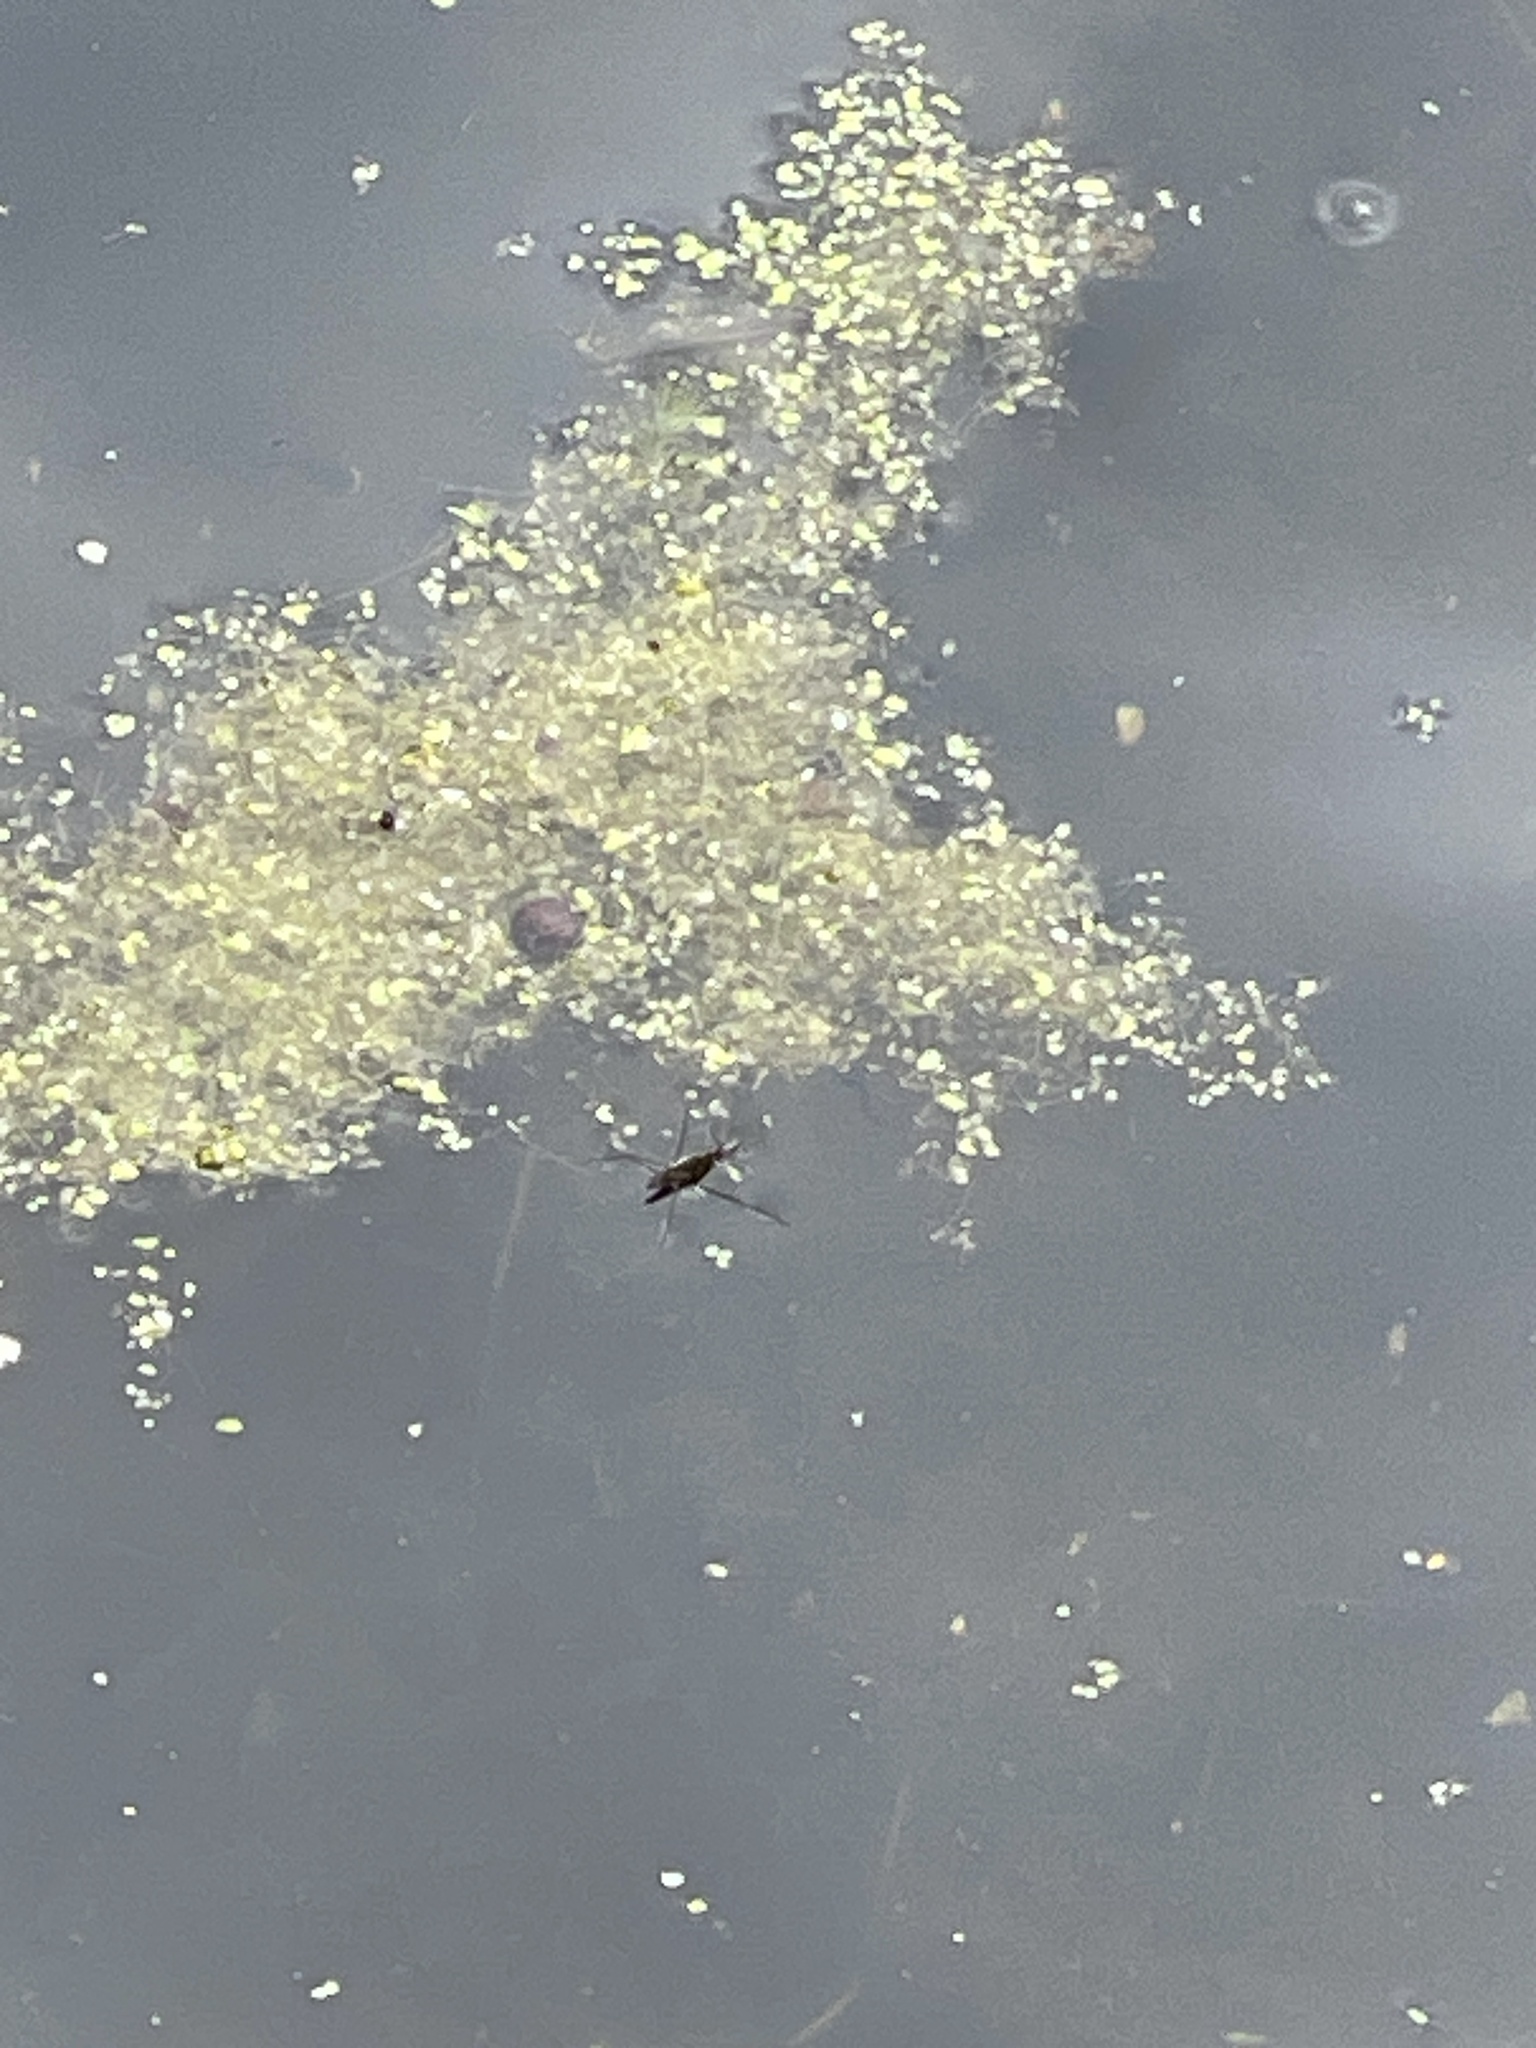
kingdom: Animalia
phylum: Arthropoda
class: Insecta
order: Hemiptera
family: Gerridae
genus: Gerris
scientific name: Gerris
